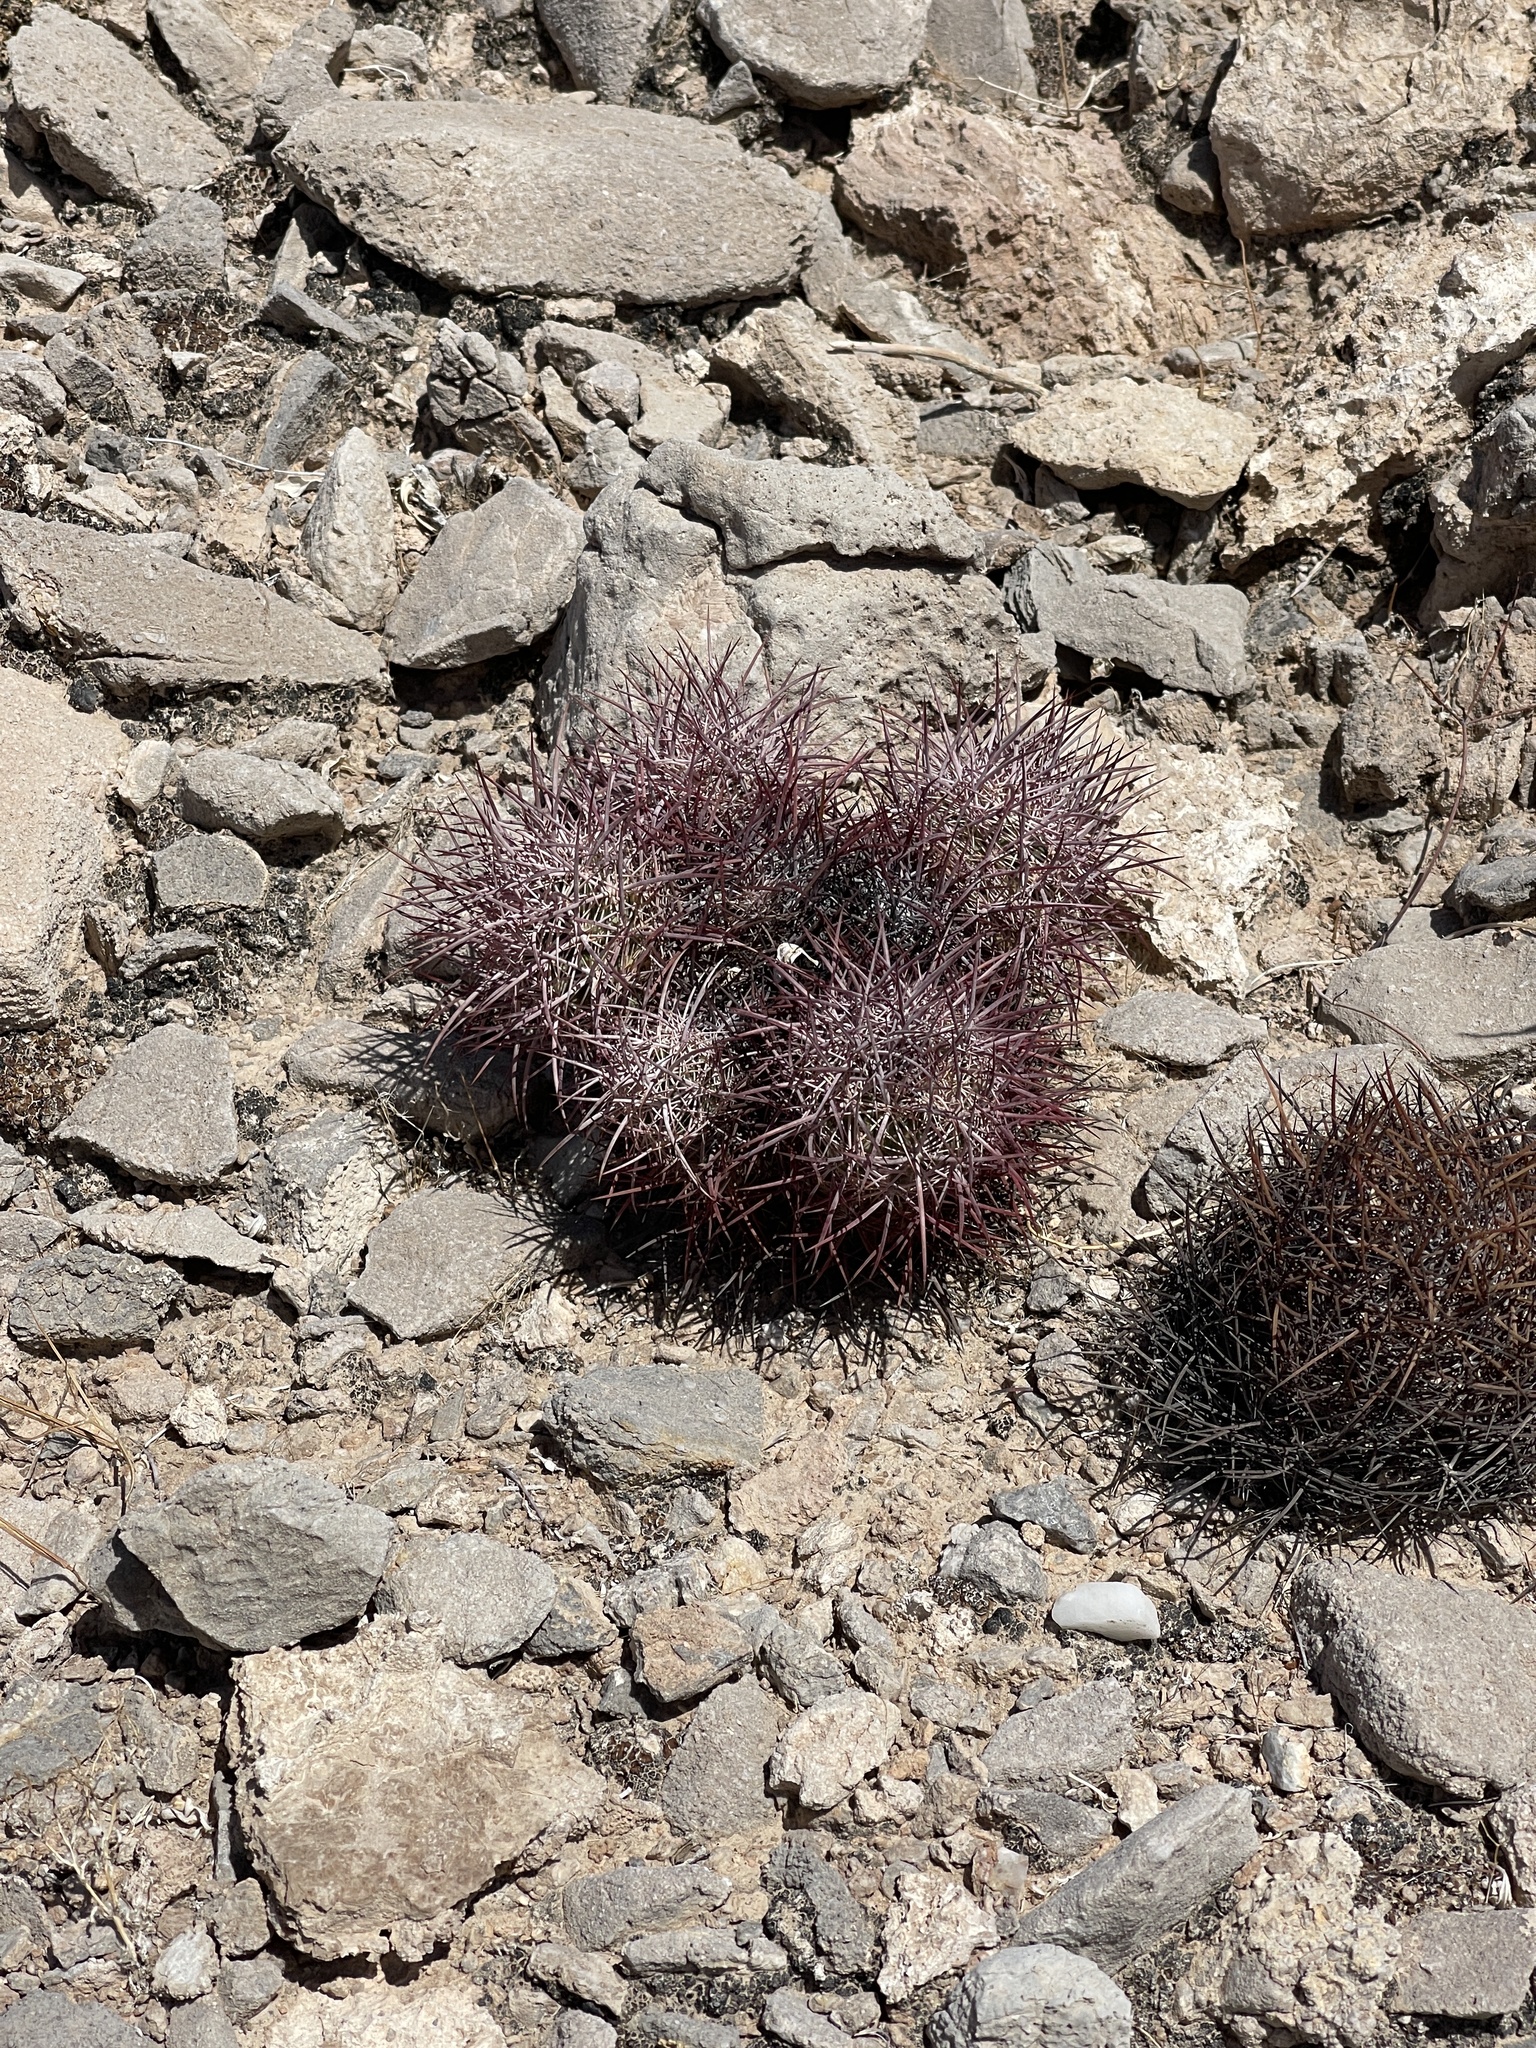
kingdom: Plantae
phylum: Tracheophyta
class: Magnoliopsida
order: Caryophyllales
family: Cactaceae
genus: Sclerocactus
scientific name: Sclerocactus johnsonii
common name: Eight-spine fishhook cactus
